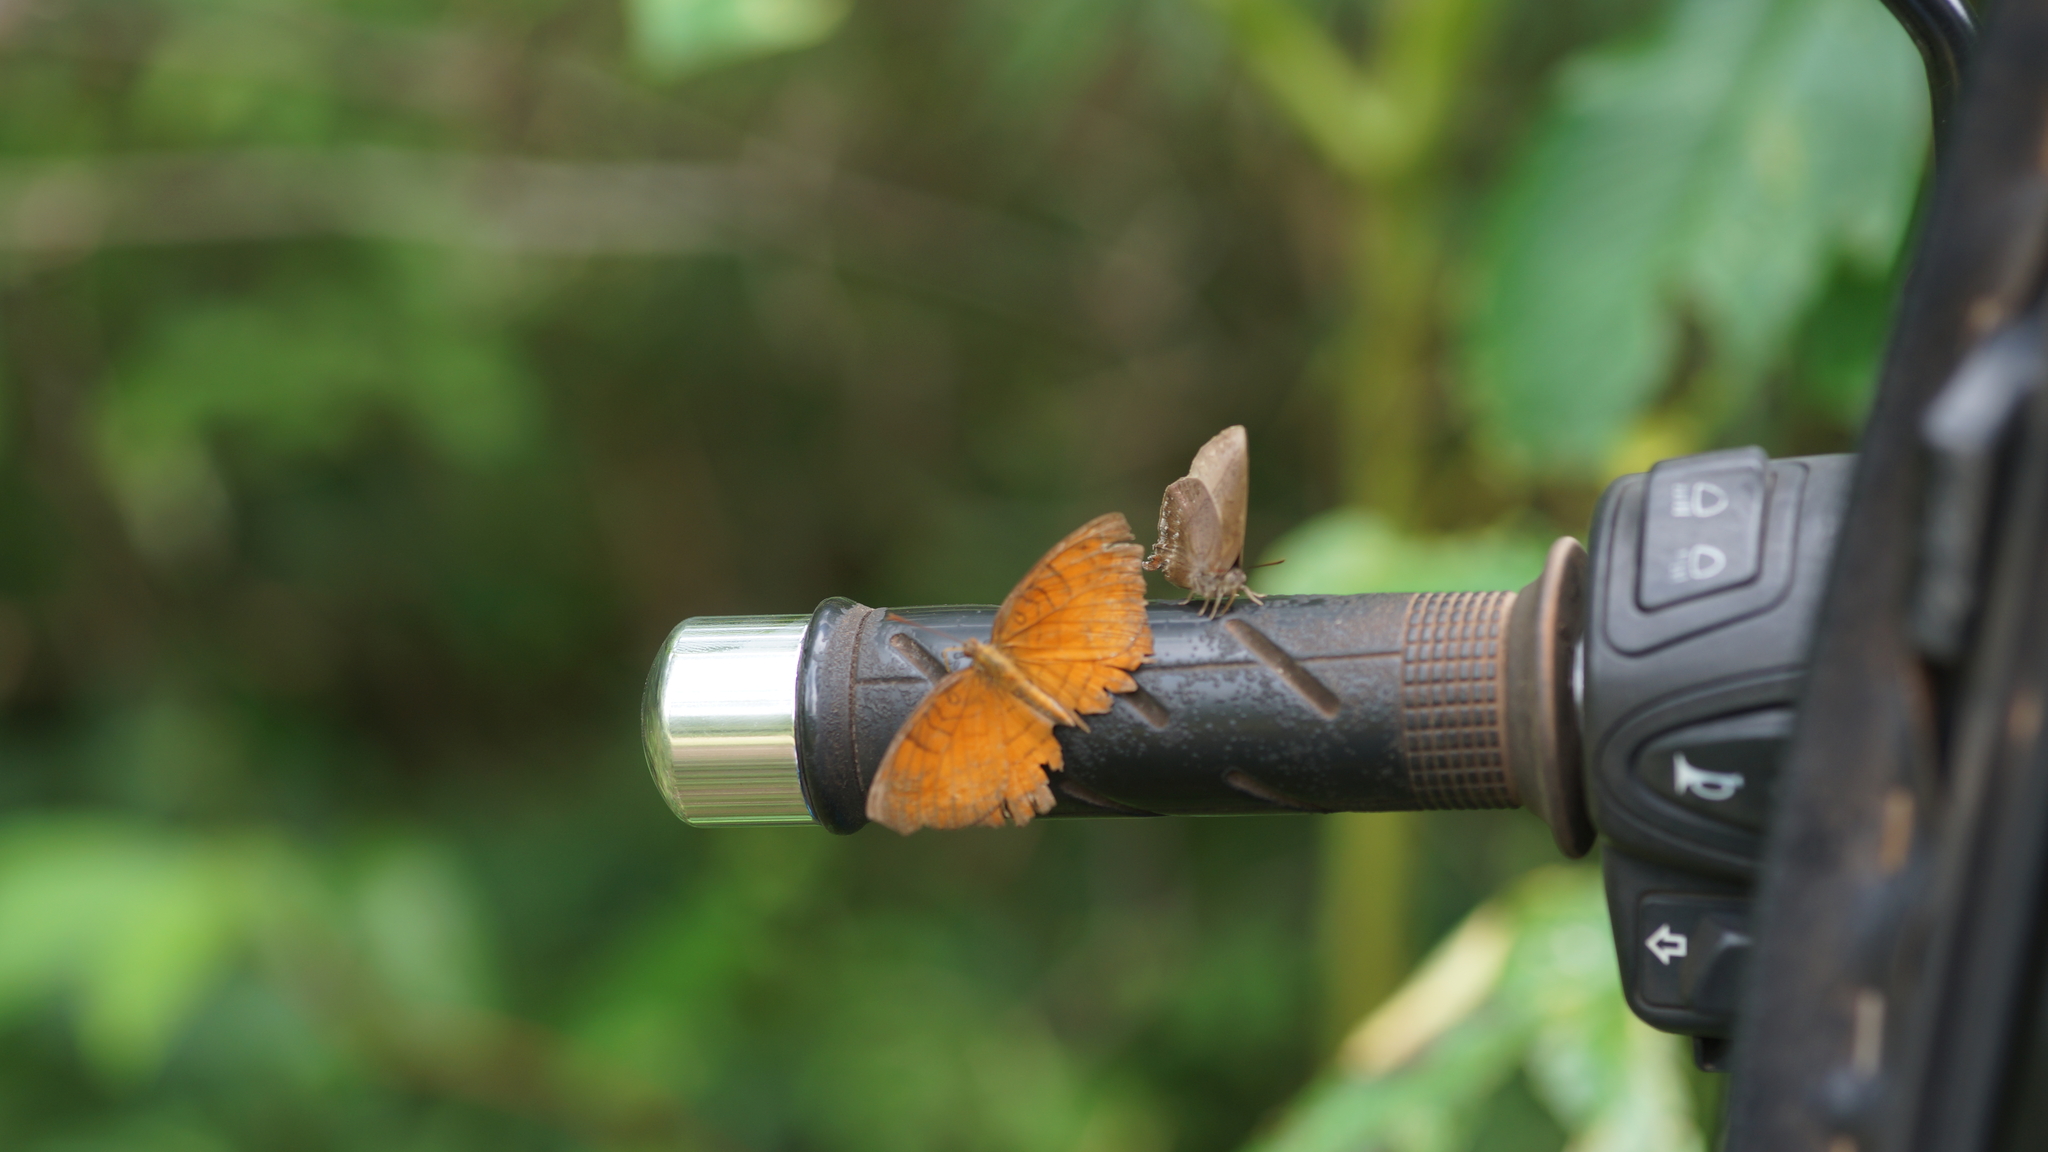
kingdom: Animalia
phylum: Arthropoda
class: Insecta
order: Lepidoptera
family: Nymphalidae
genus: Ariadne
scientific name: Ariadne specularia
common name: Banded castor
